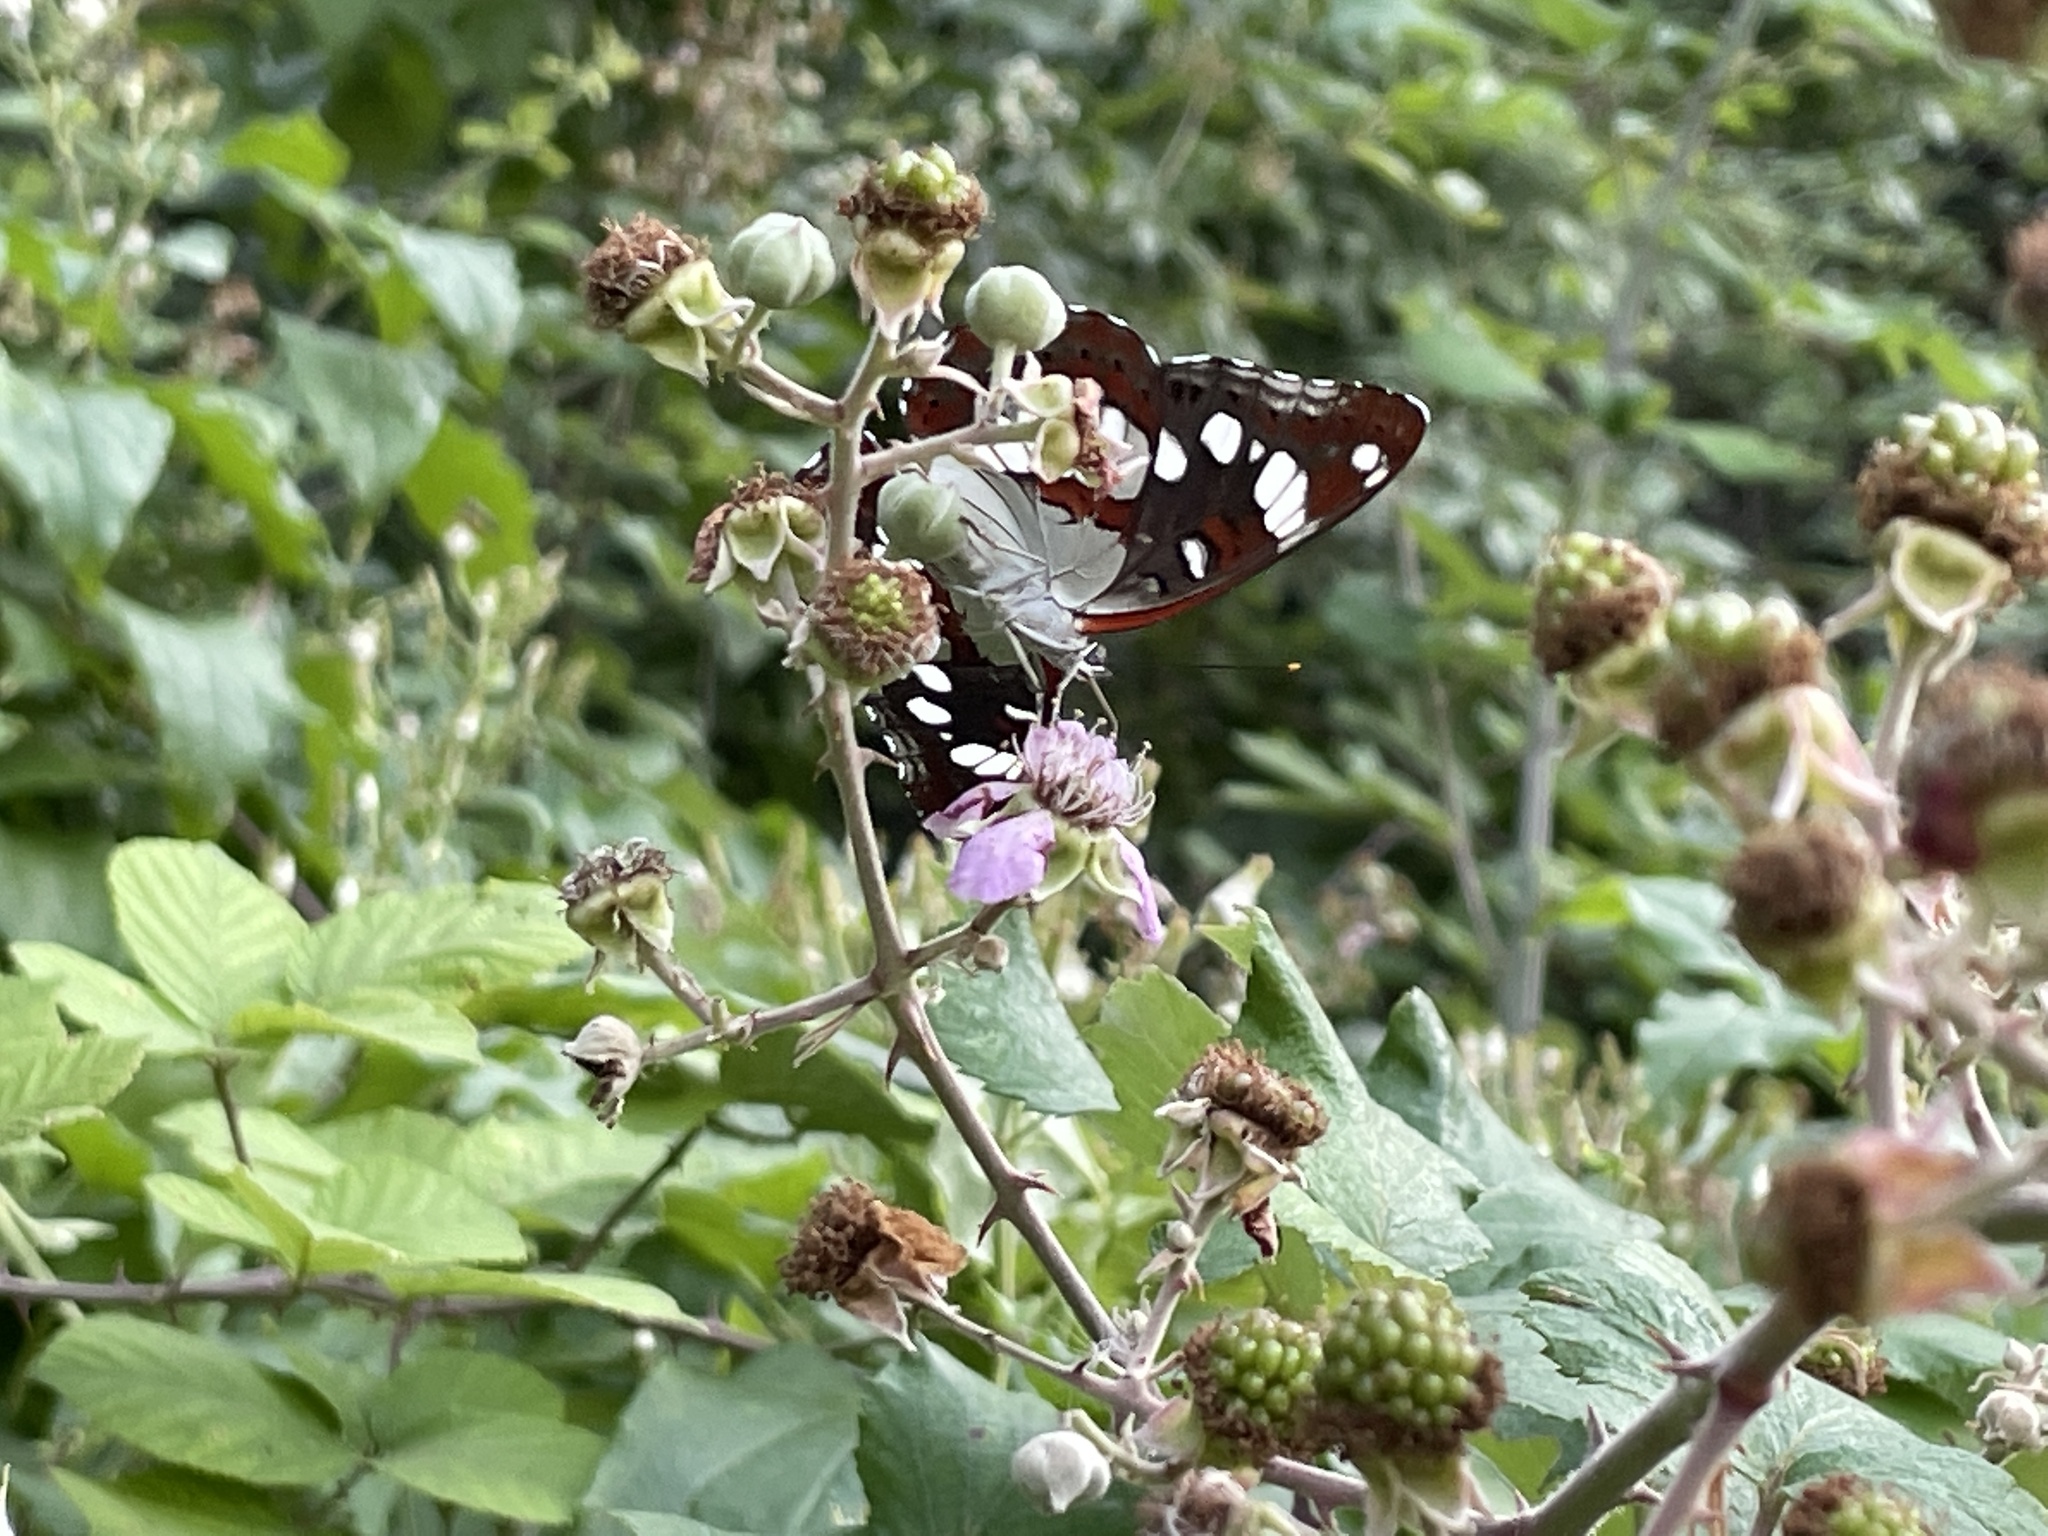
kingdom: Animalia
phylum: Arthropoda
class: Insecta
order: Lepidoptera
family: Nymphalidae
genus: Limenitis
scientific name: Limenitis reducta
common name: Southern white admiral
